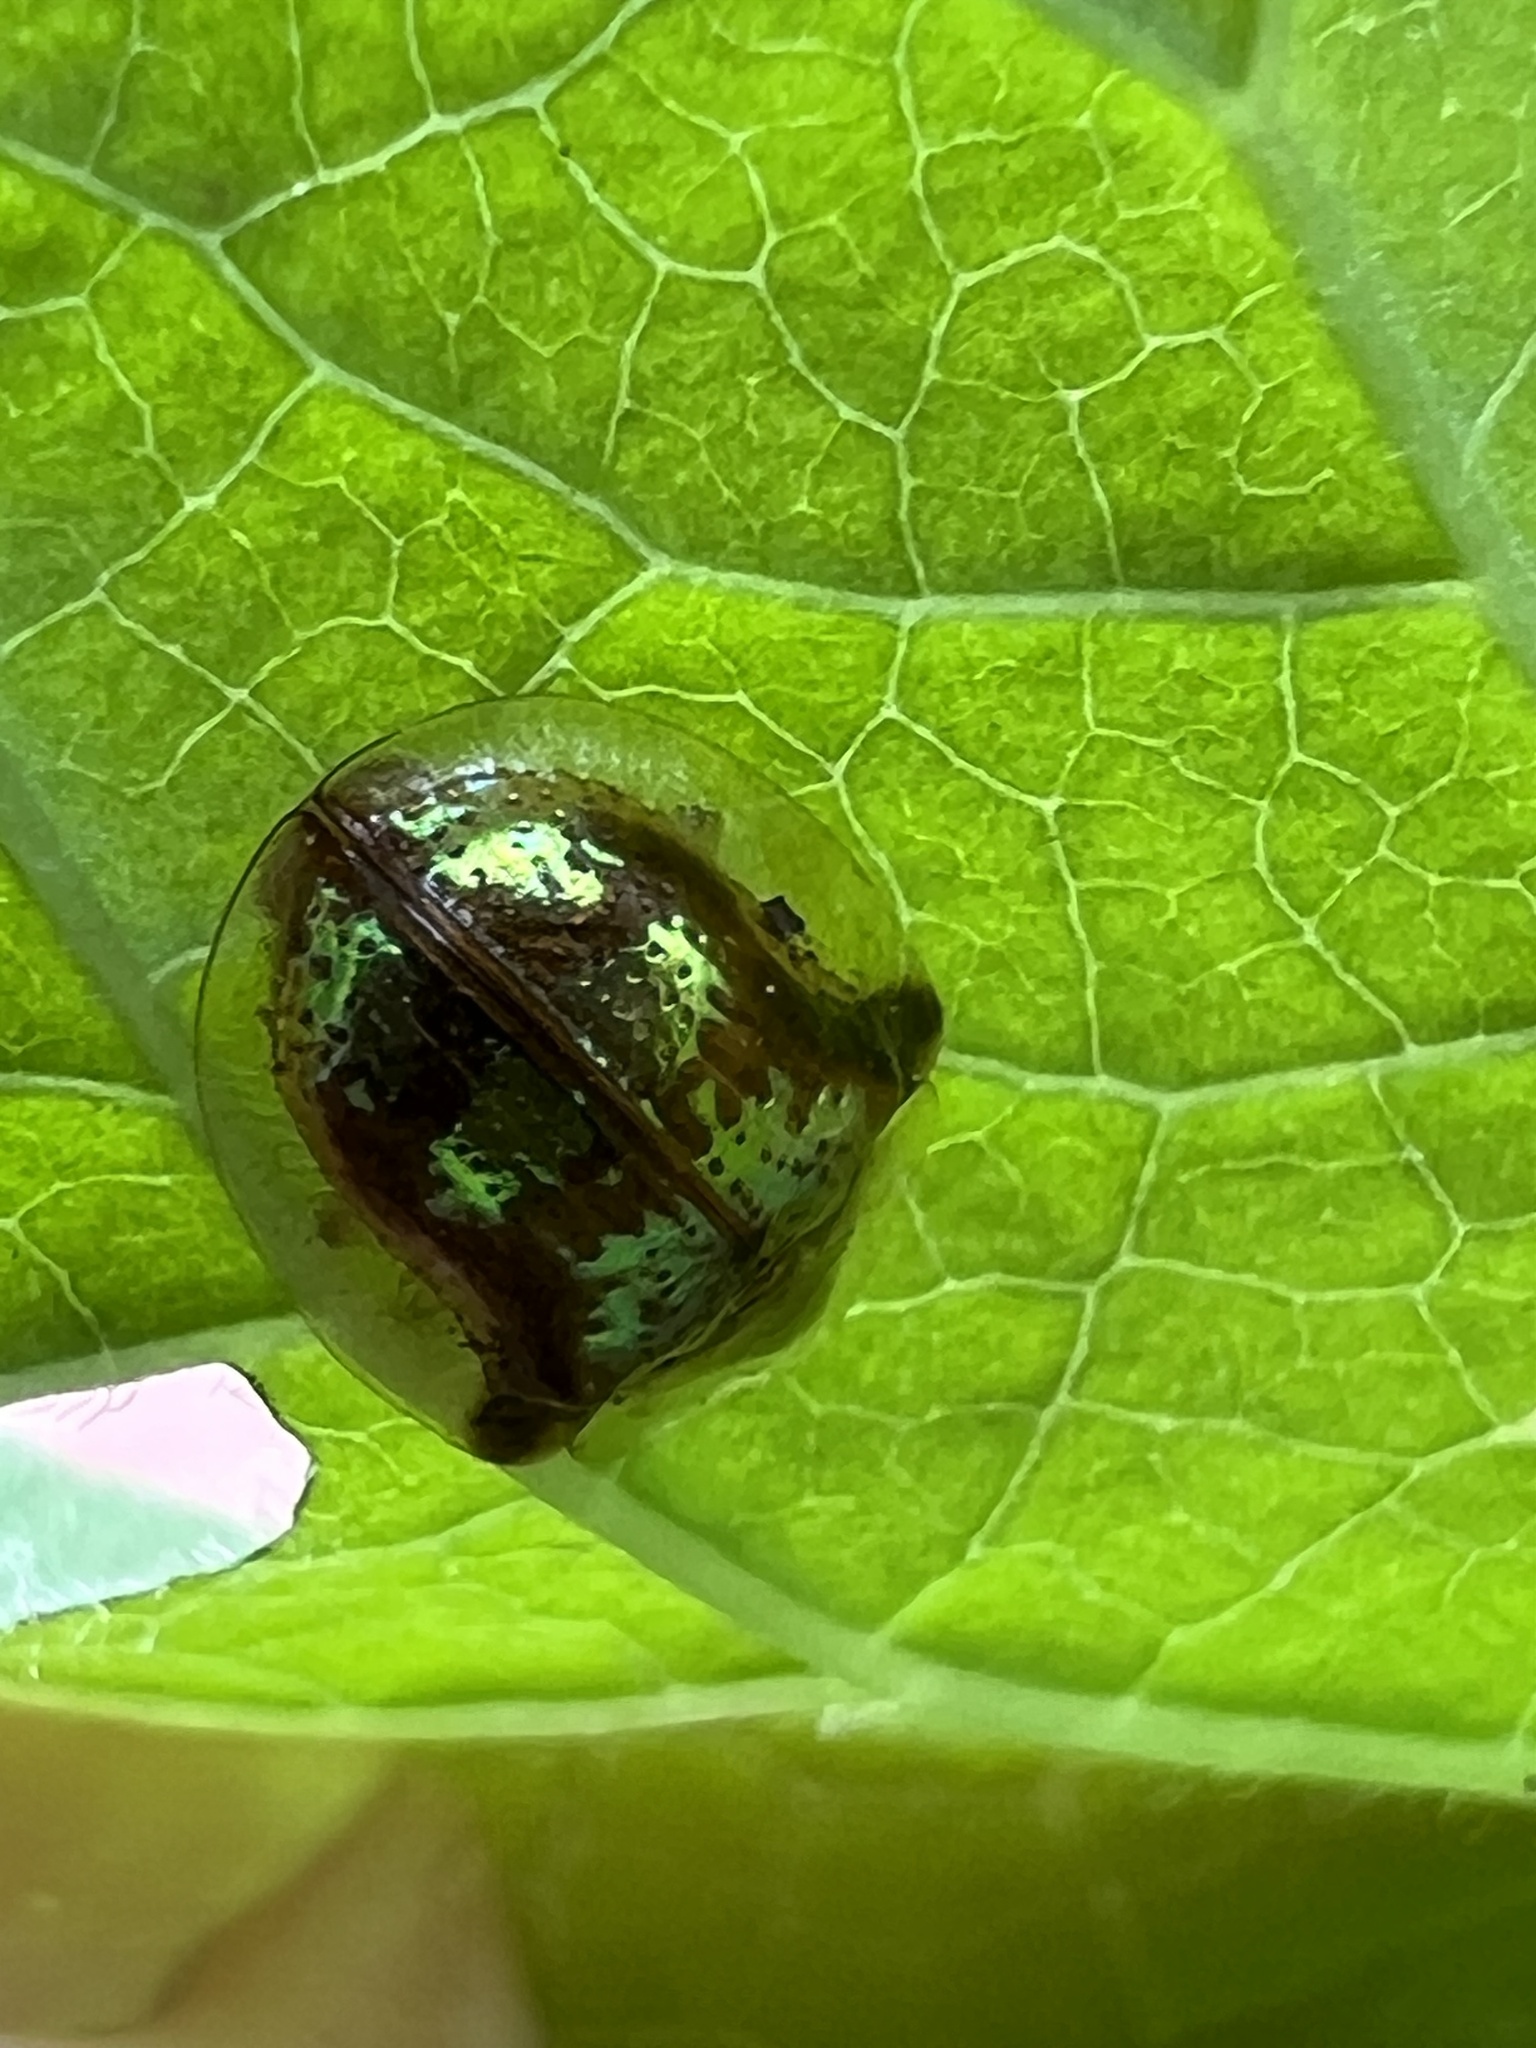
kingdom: Animalia
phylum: Arthropoda
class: Insecta
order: Coleoptera
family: Chrysomelidae
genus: Deloyala
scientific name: Deloyala guttata
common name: Mottled tortoise beetle
